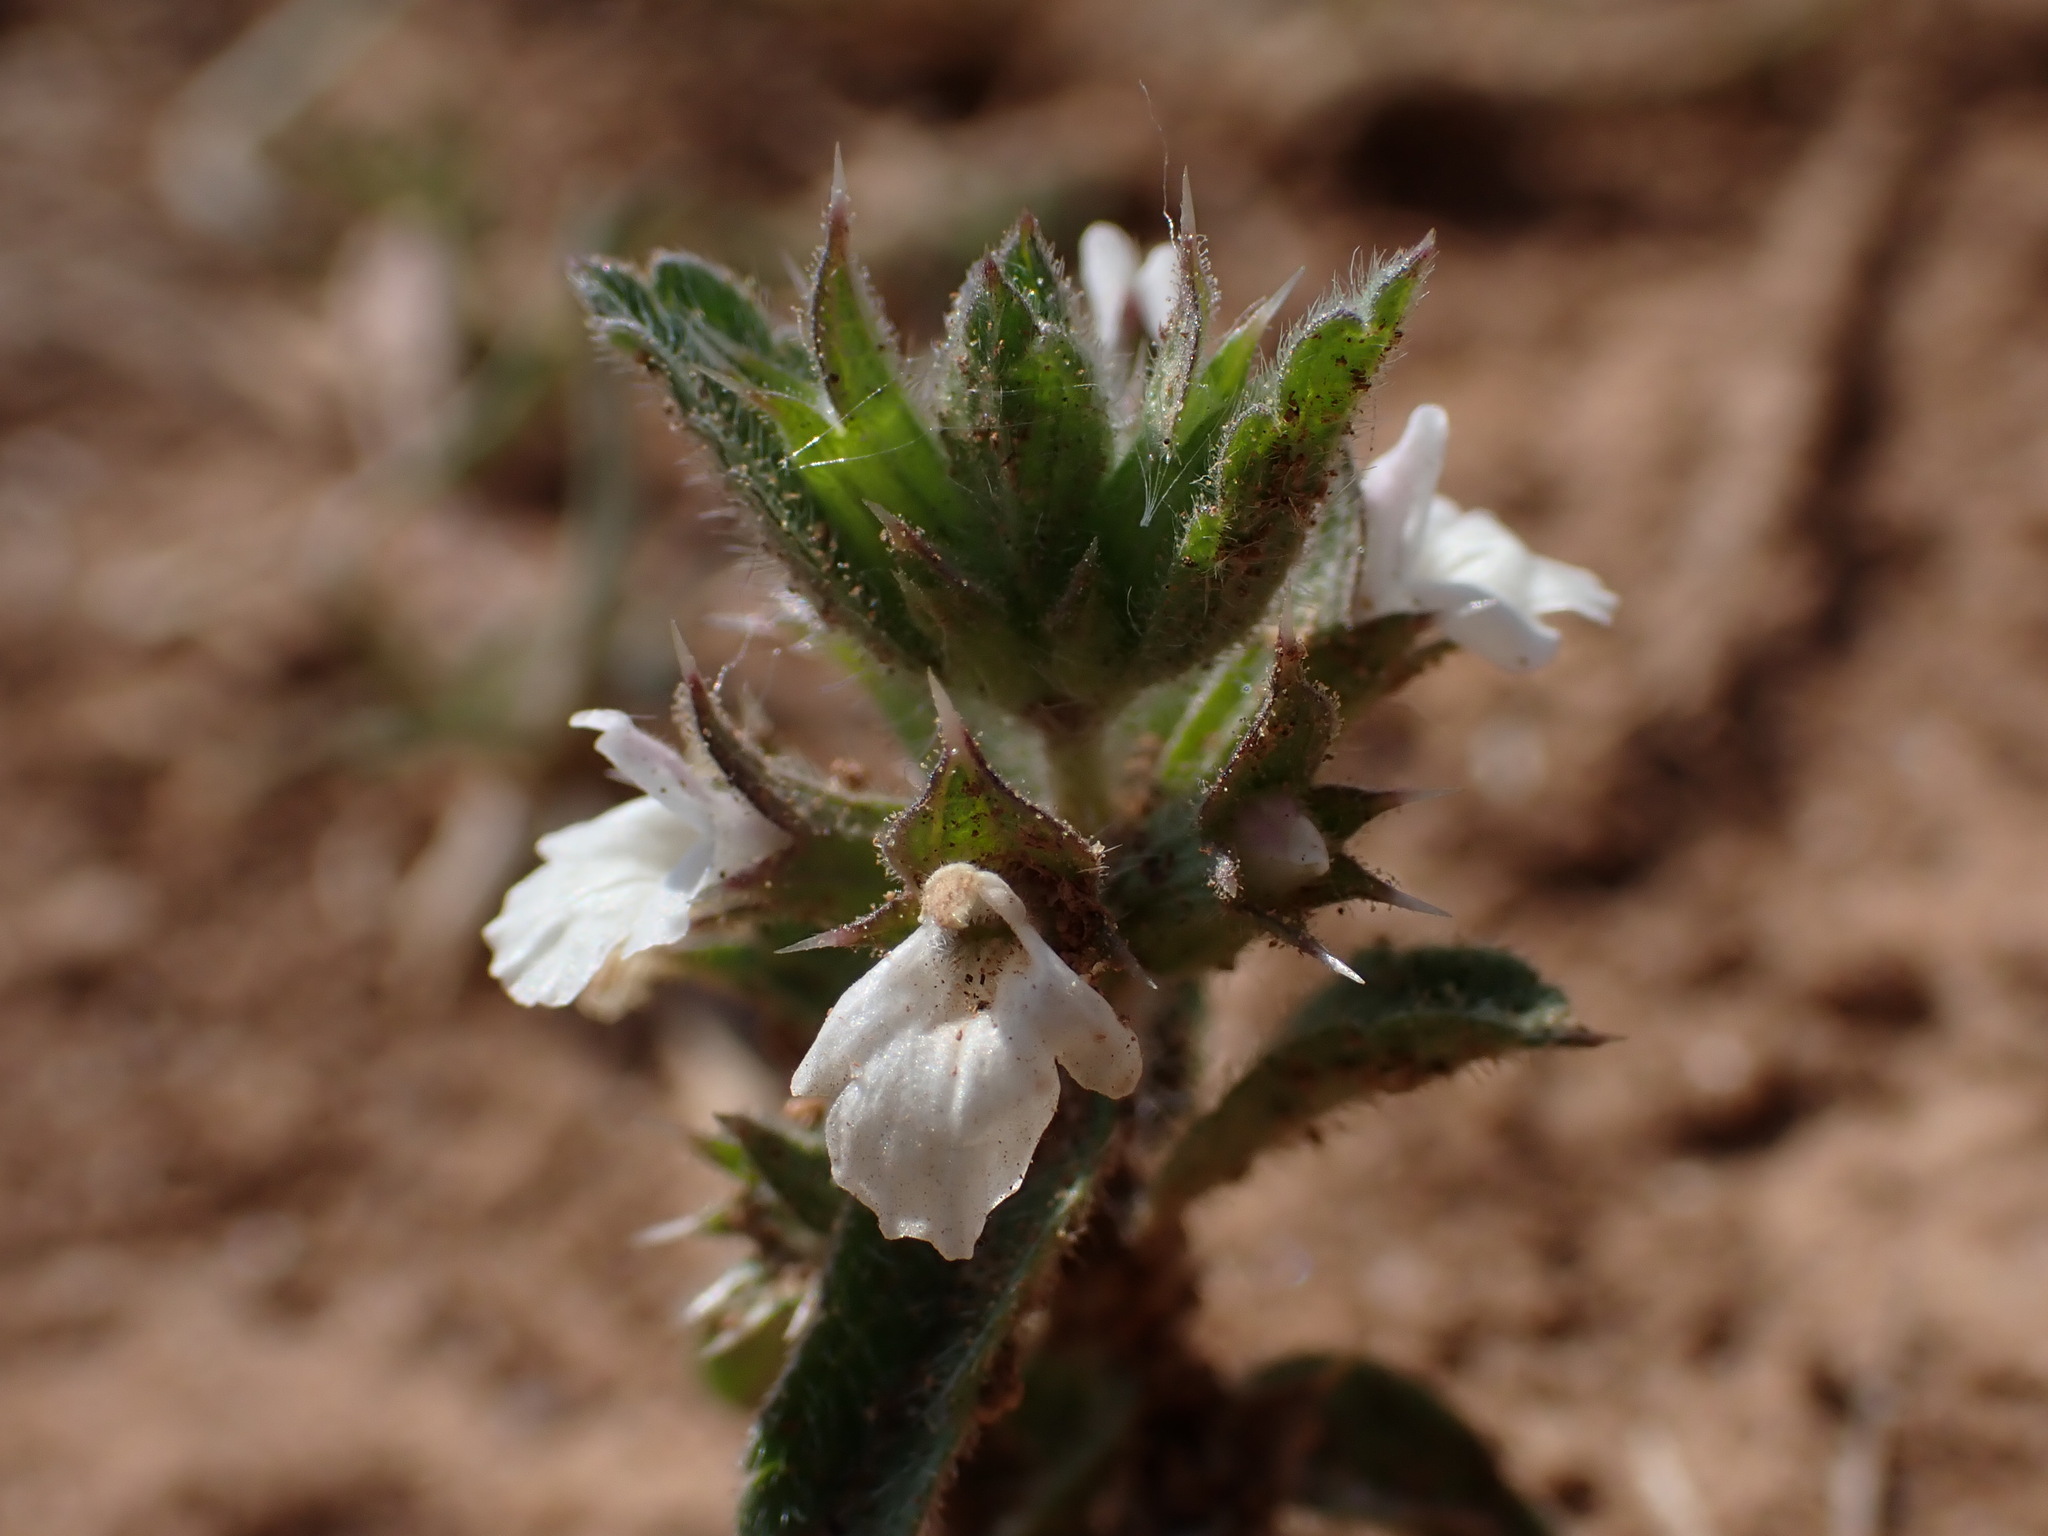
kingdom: Plantae
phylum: Tracheophyta
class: Magnoliopsida
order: Lamiales
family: Lamiaceae
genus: Sideritis
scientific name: Sideritis romana
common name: Simplebeak ironwort
